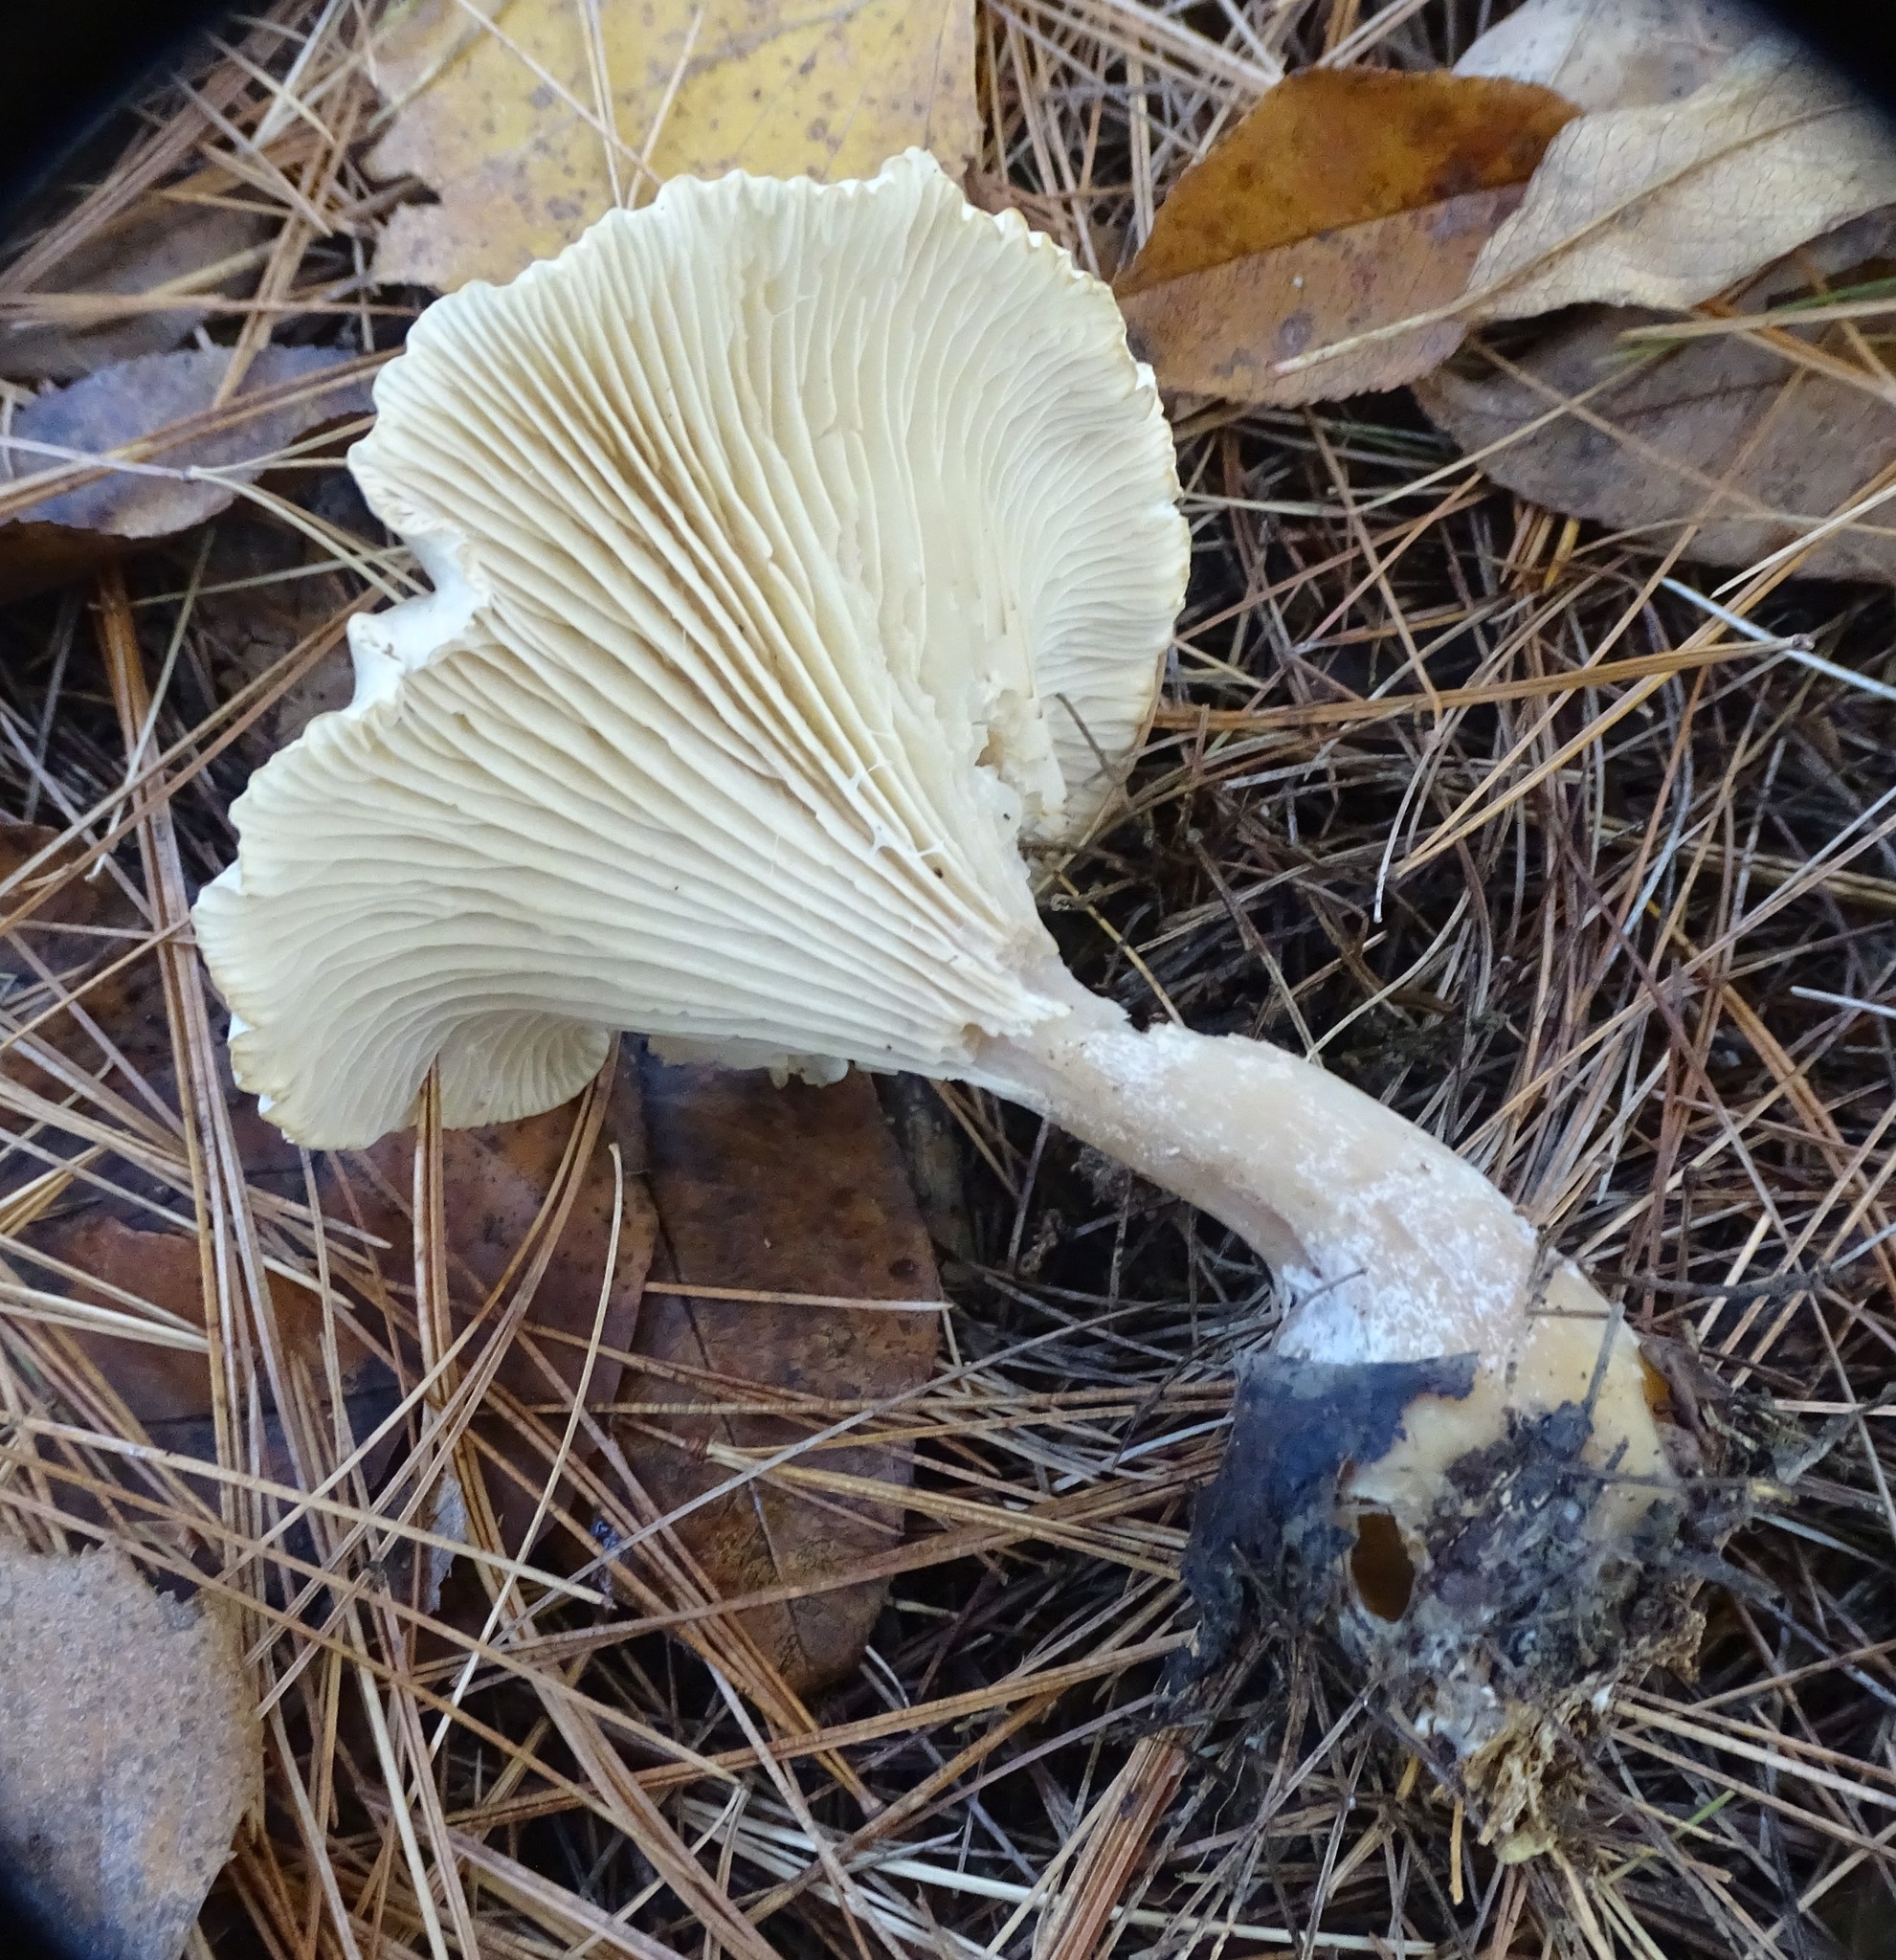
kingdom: Fungi
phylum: Basidiomycota
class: Agaricomycetes
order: Agaricales
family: Hygrophoraceae
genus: Ampulloclitocybe
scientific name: Ampulloclitocybe clavipes
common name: Club foot
